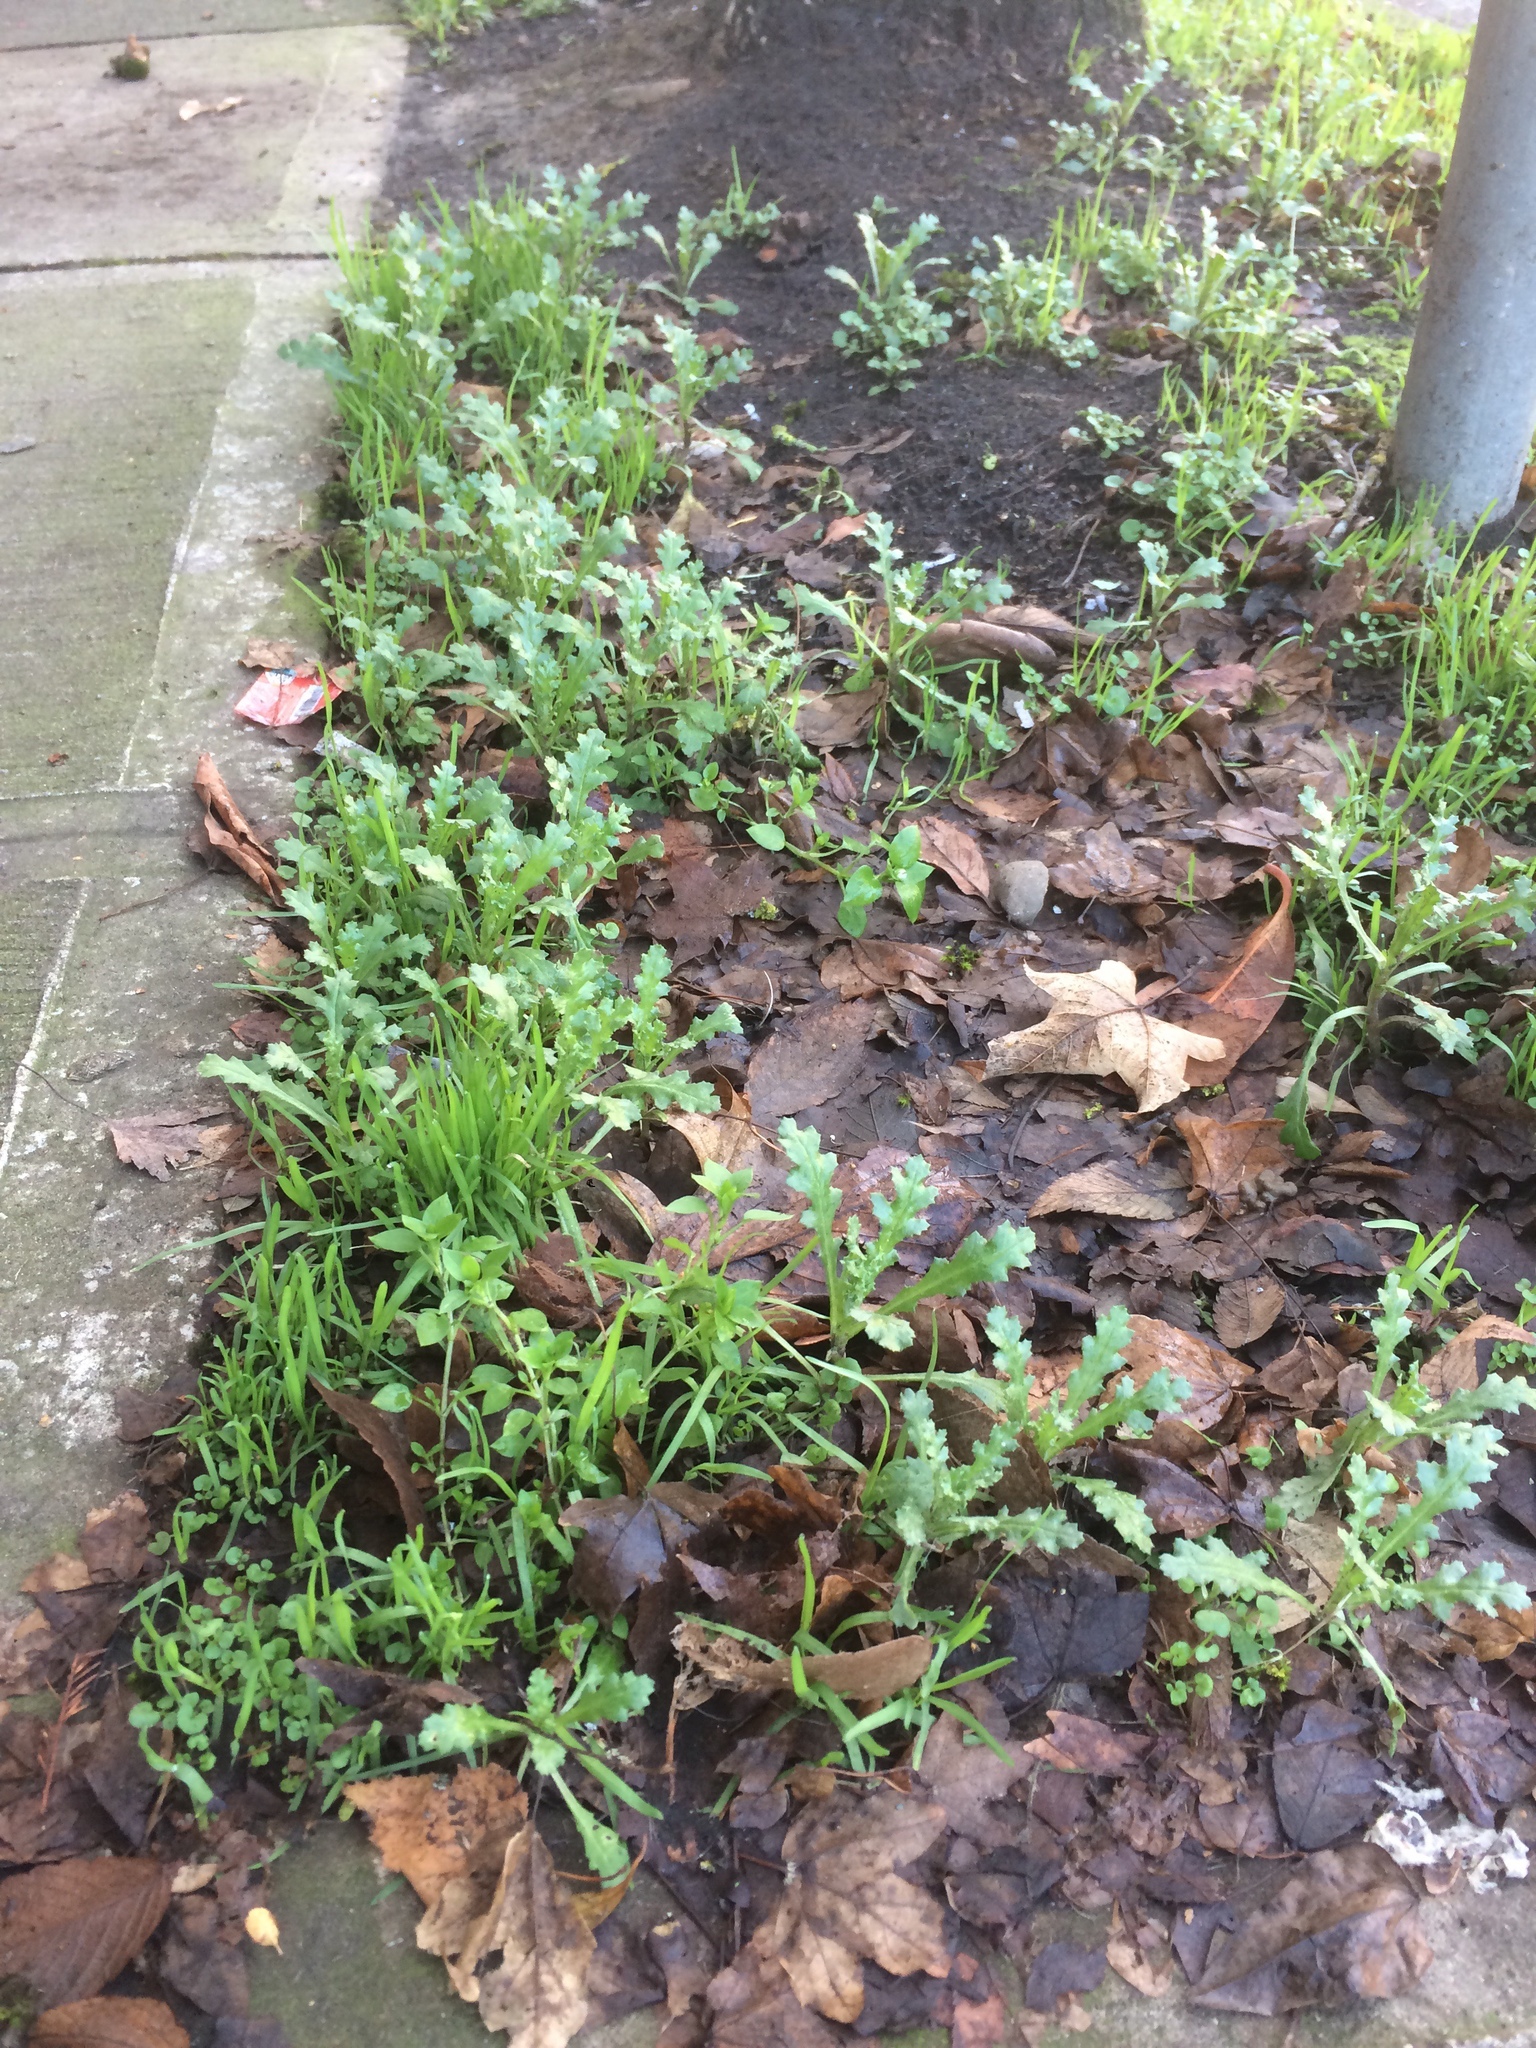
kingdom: Plantae
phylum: Tracheophyta
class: Magnoliopsida
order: Asterales
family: Asteraceae
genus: Senecio
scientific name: Senecio vulgaris
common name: Old-man-in-the-spring
